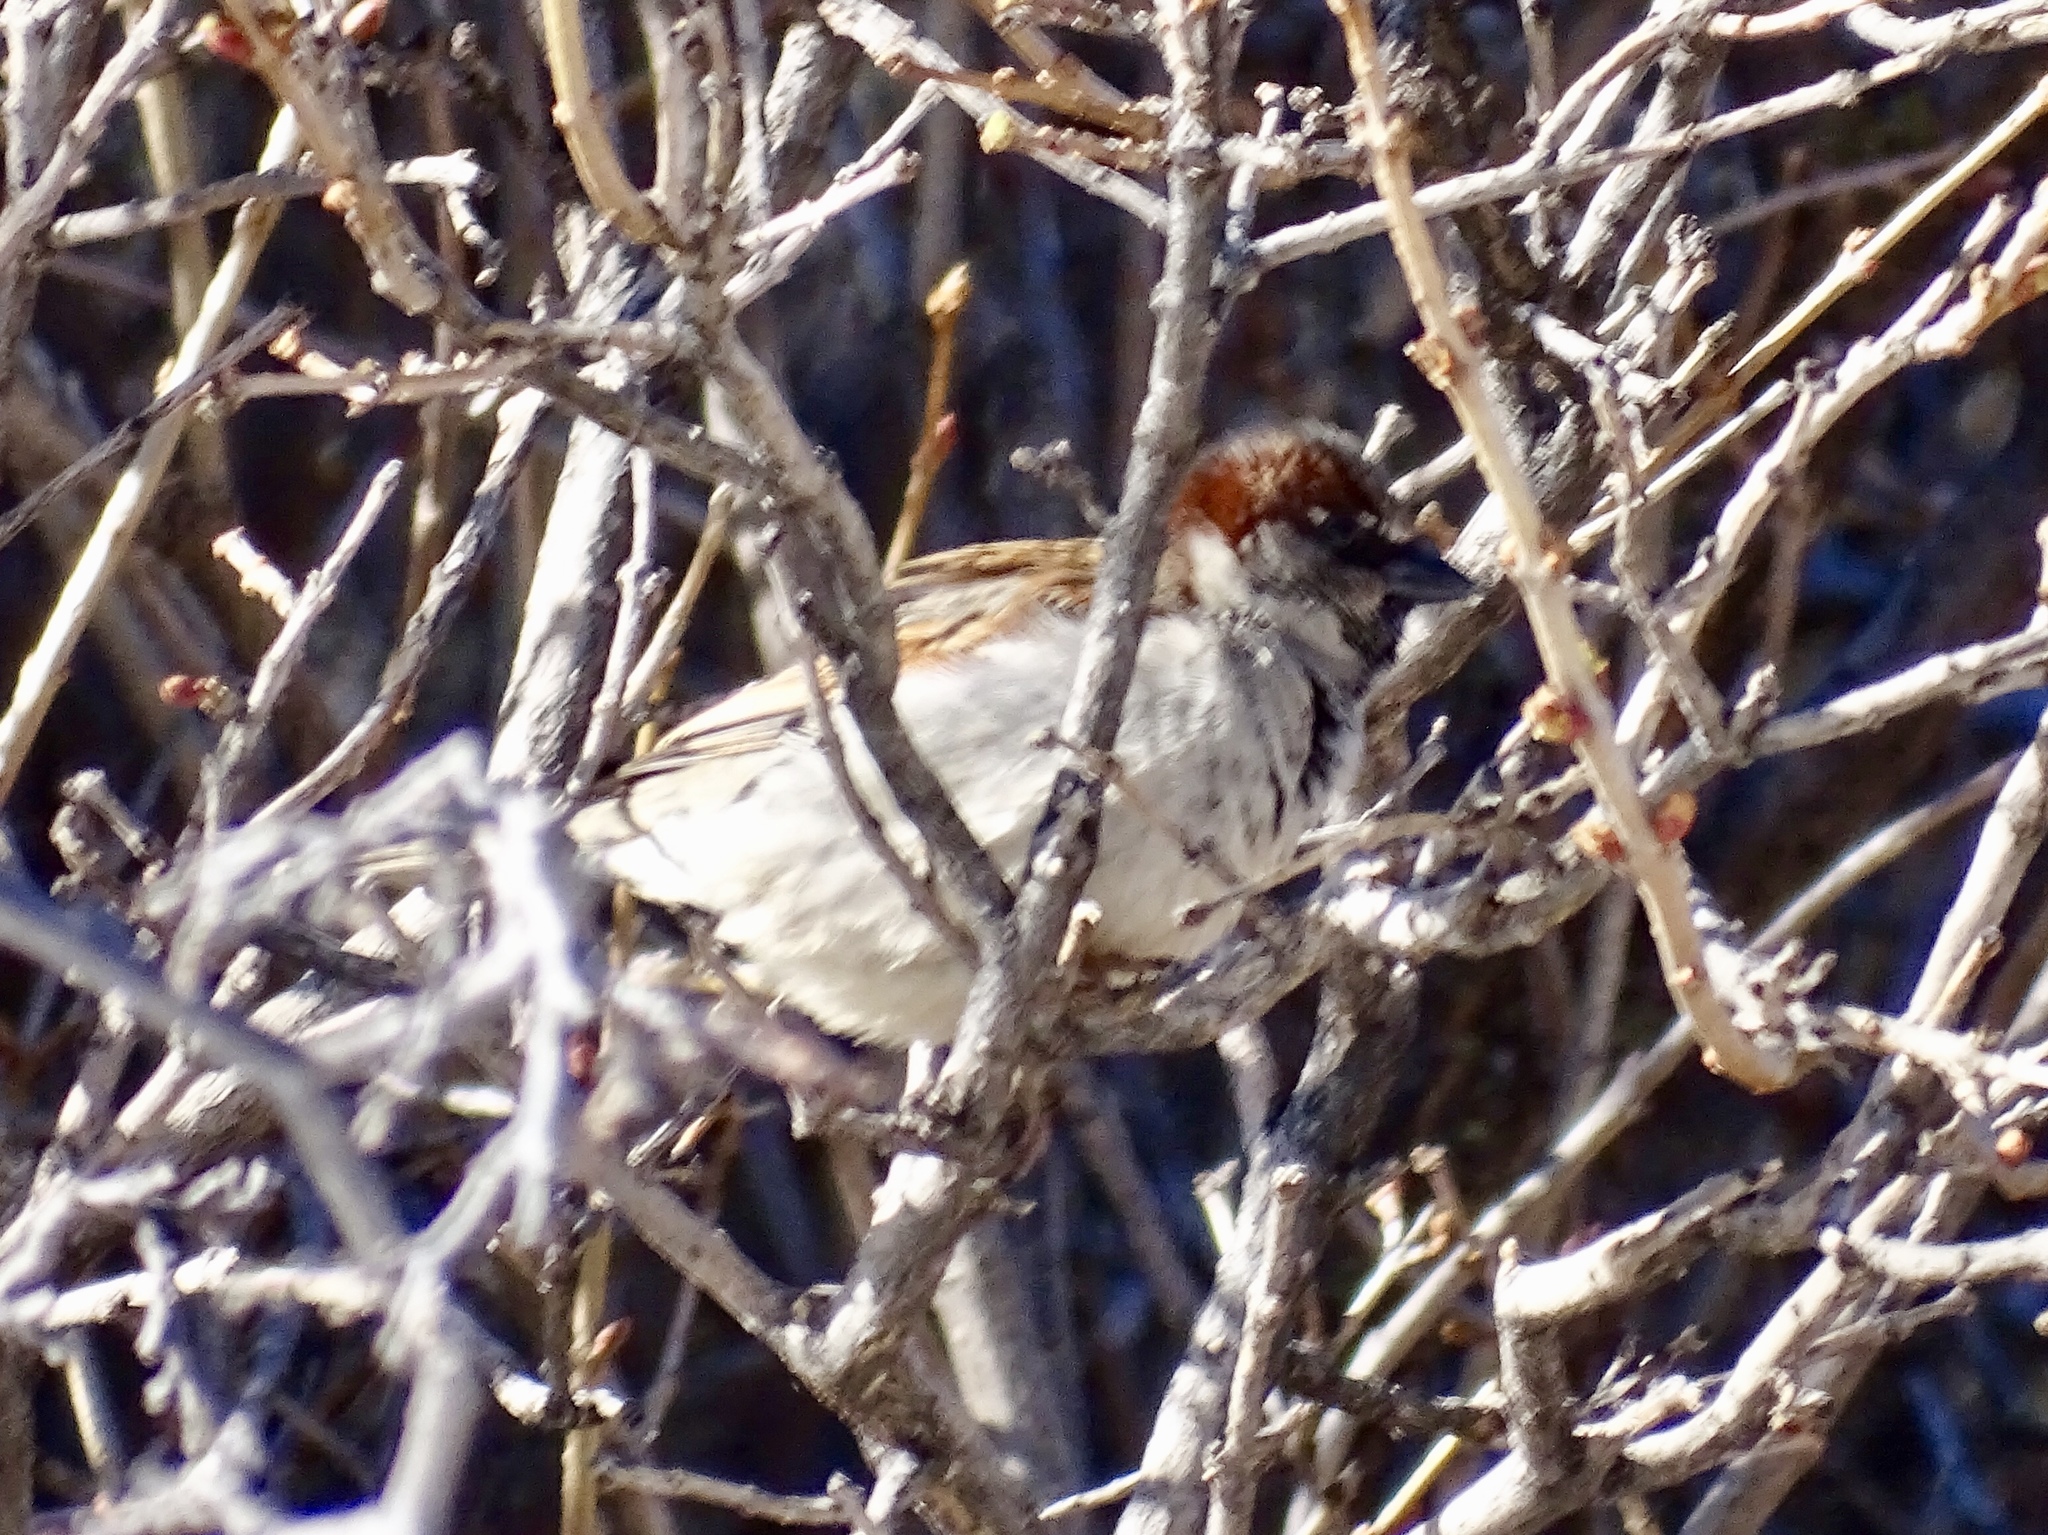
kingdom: Animalia
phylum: Chordata
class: Aves
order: Passeriformes
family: Passeridae
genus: Passer
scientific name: Passer domesticus
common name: House sparrow
